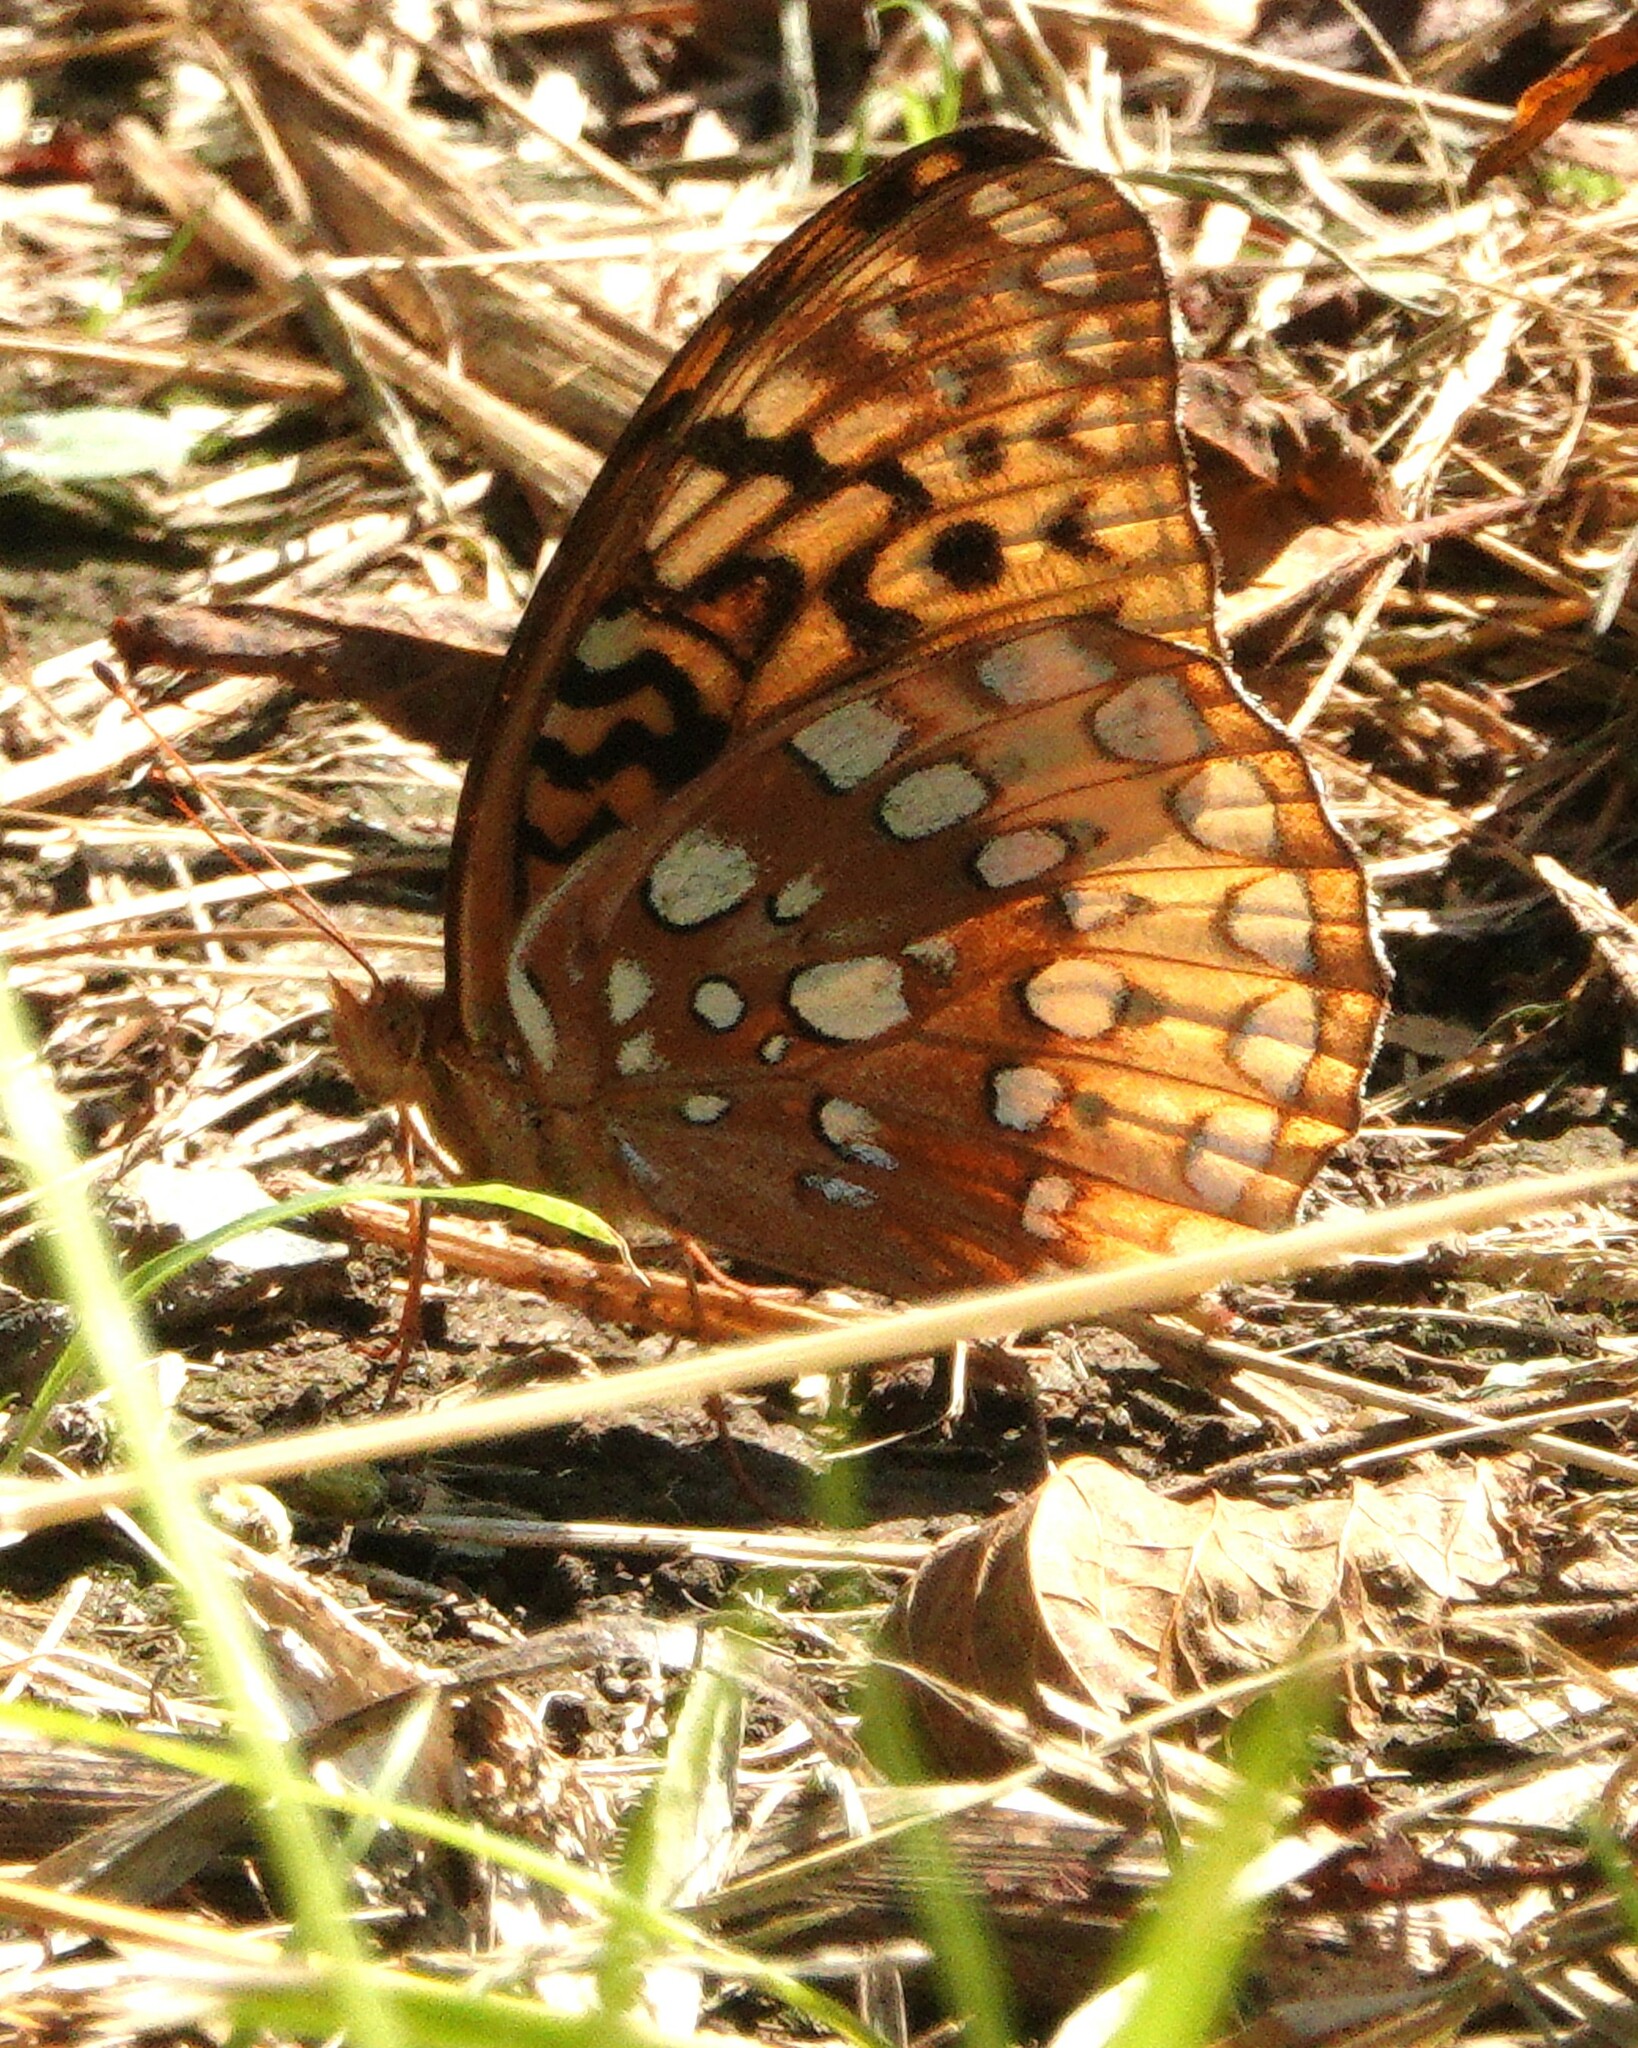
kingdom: Animalia
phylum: Arthropoda
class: Insecta
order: Lepidoptera
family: Nymphalidae
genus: Speyeria
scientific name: Speyeria cybele
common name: Great spangled fritillary
